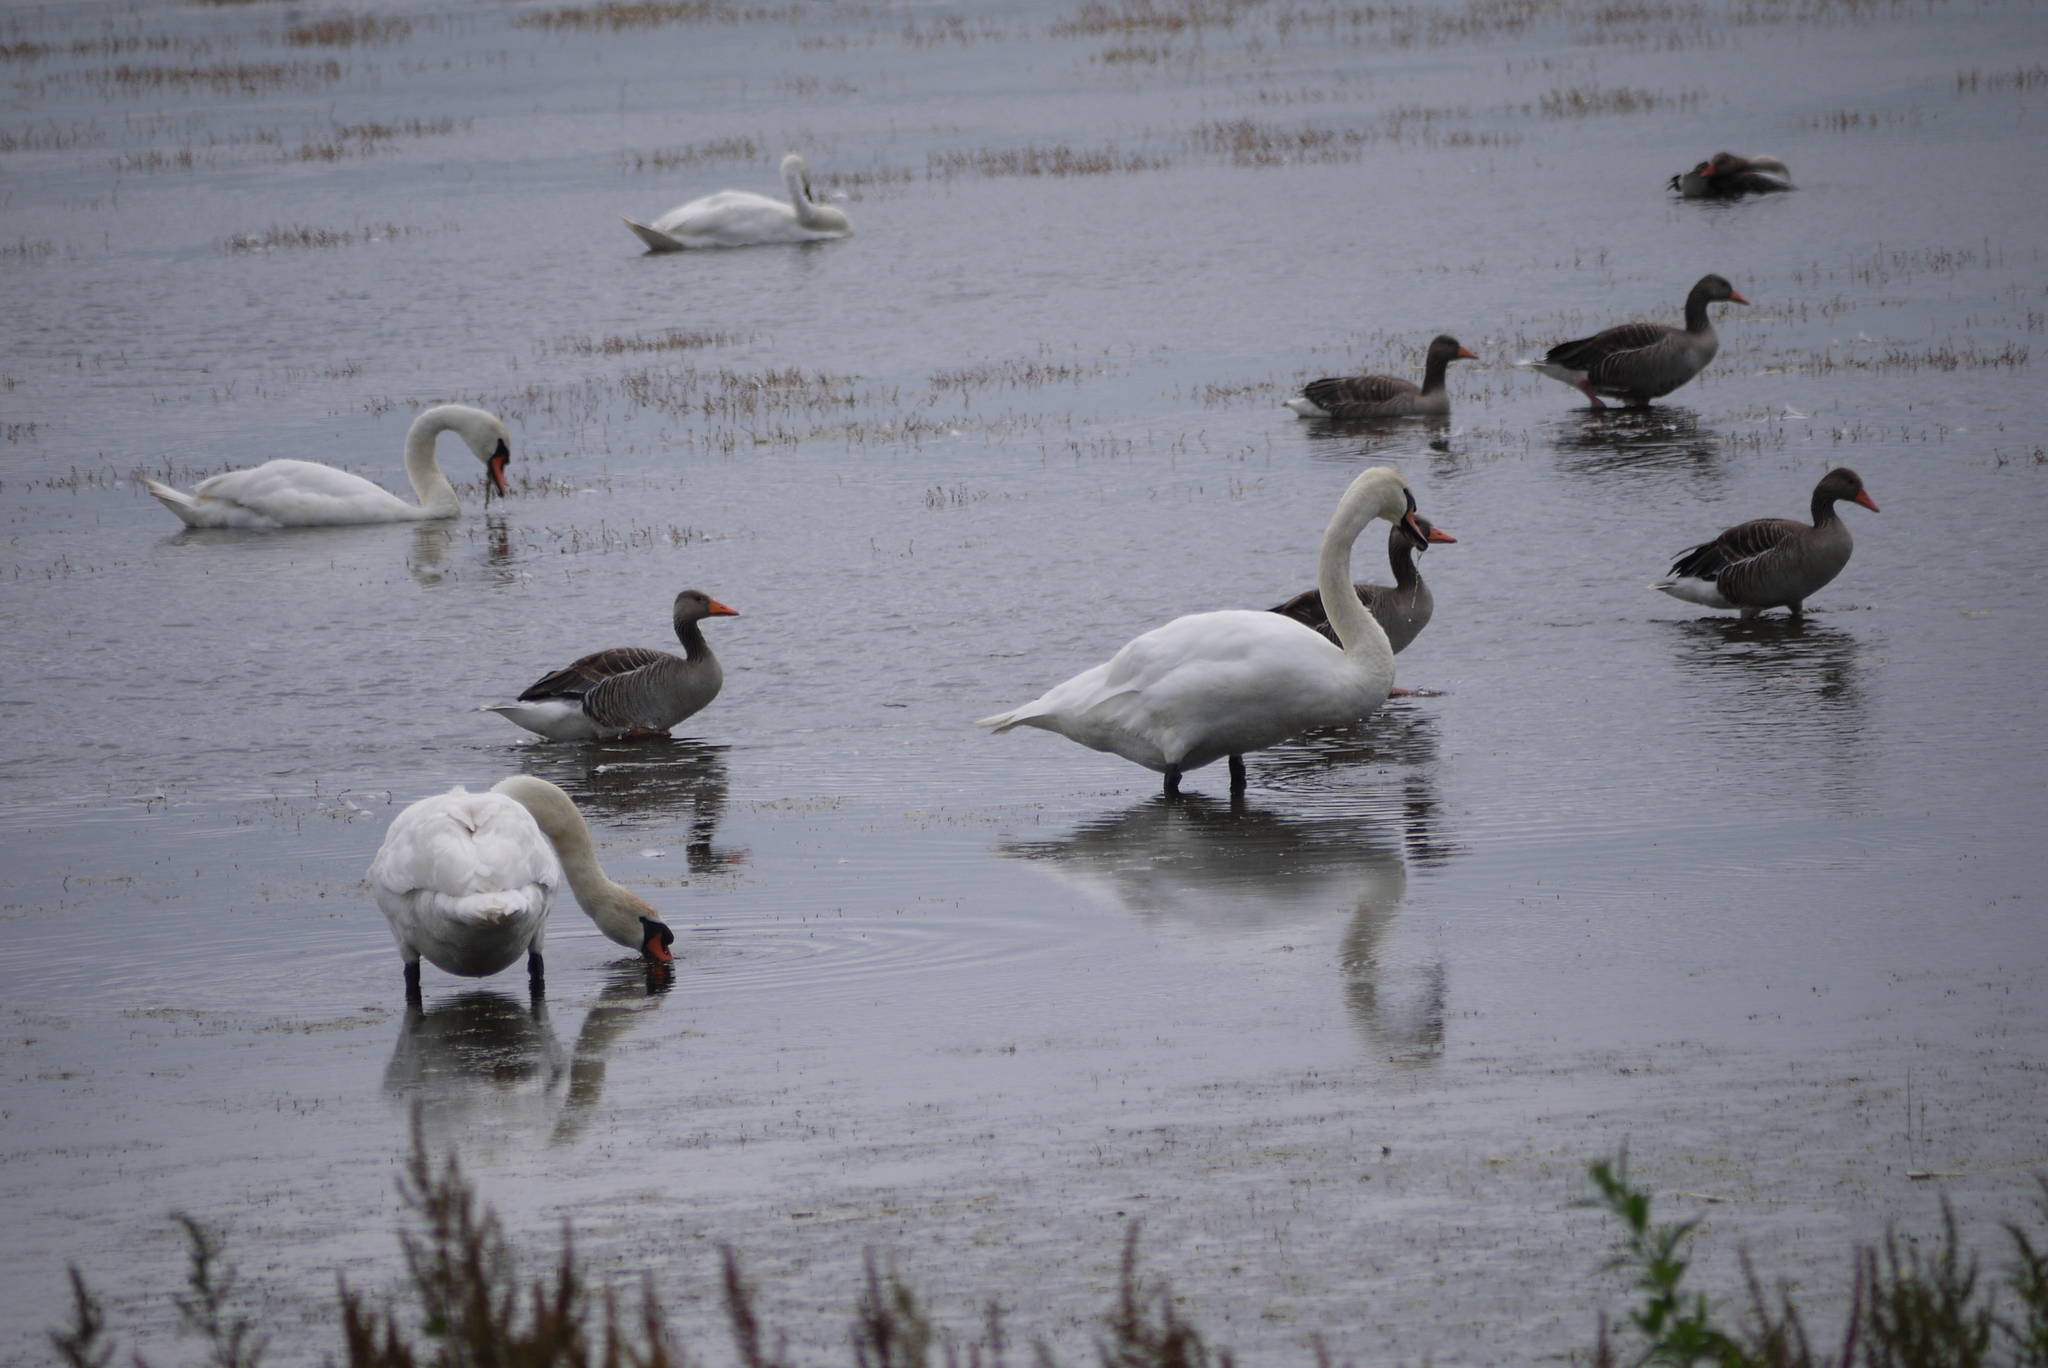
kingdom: Animalia
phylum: Chordata
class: Aves
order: Anseriformes
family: Anatidae
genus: Cygnus
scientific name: Cygnus olor
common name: Mute swan
